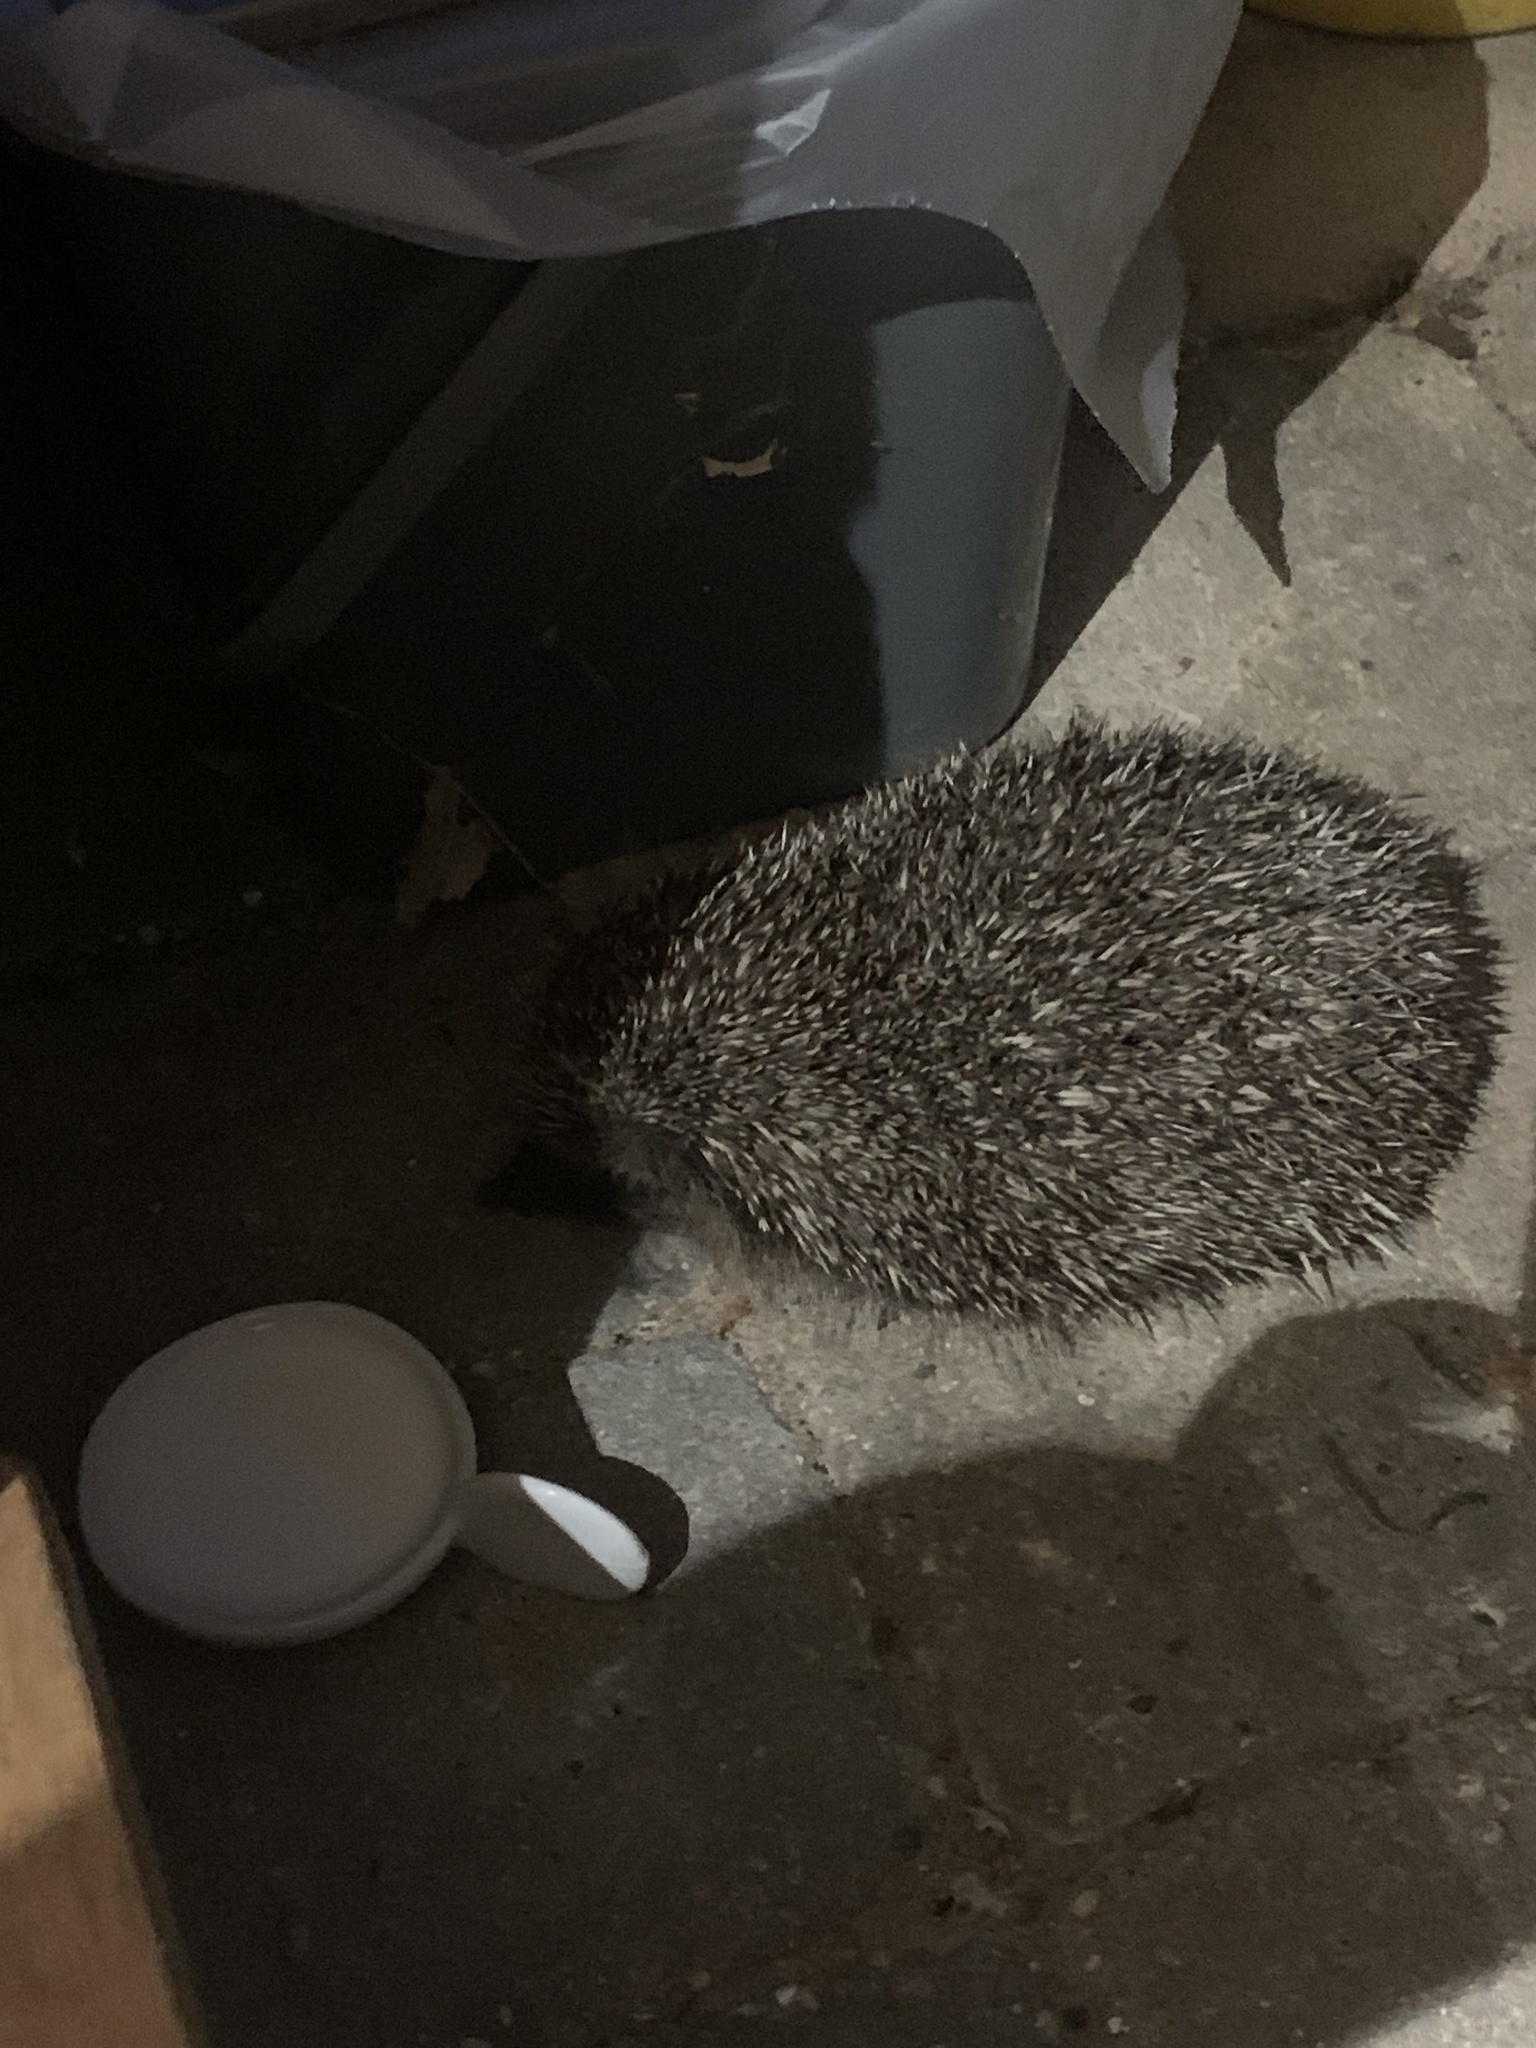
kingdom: Animalia
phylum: Chordata
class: Mammalia
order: Erinaceomorpha
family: Erinaceidae
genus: Erinaceus
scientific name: Erinaceus europaeus
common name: West european hedgehog
